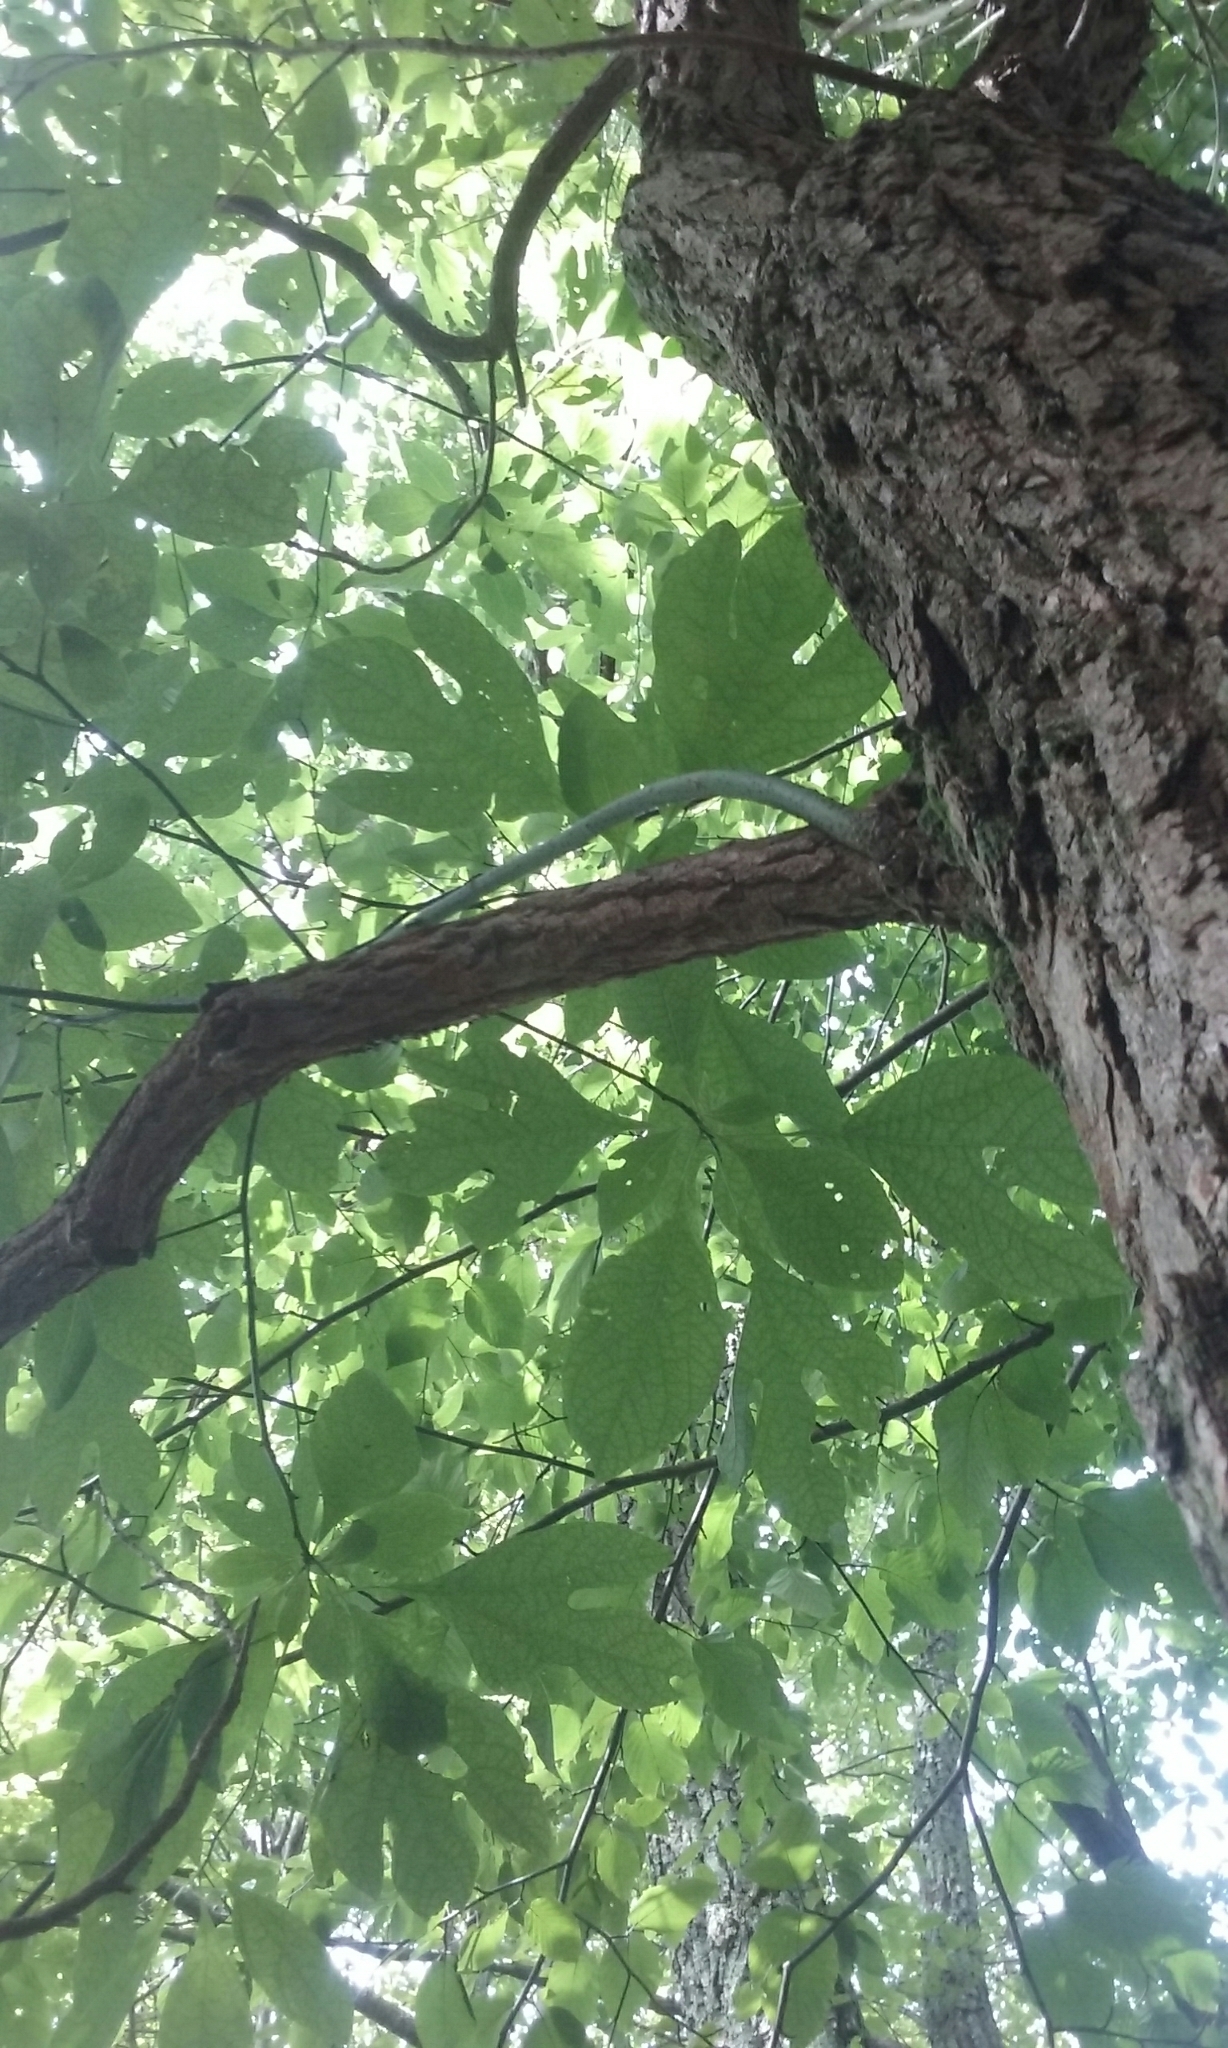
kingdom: Plantae
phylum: Tracheophyta
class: Magnoliopsida
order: Laurales
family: Lauraceae
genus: Sassafras
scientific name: Sassafras albidum
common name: Sassafras
